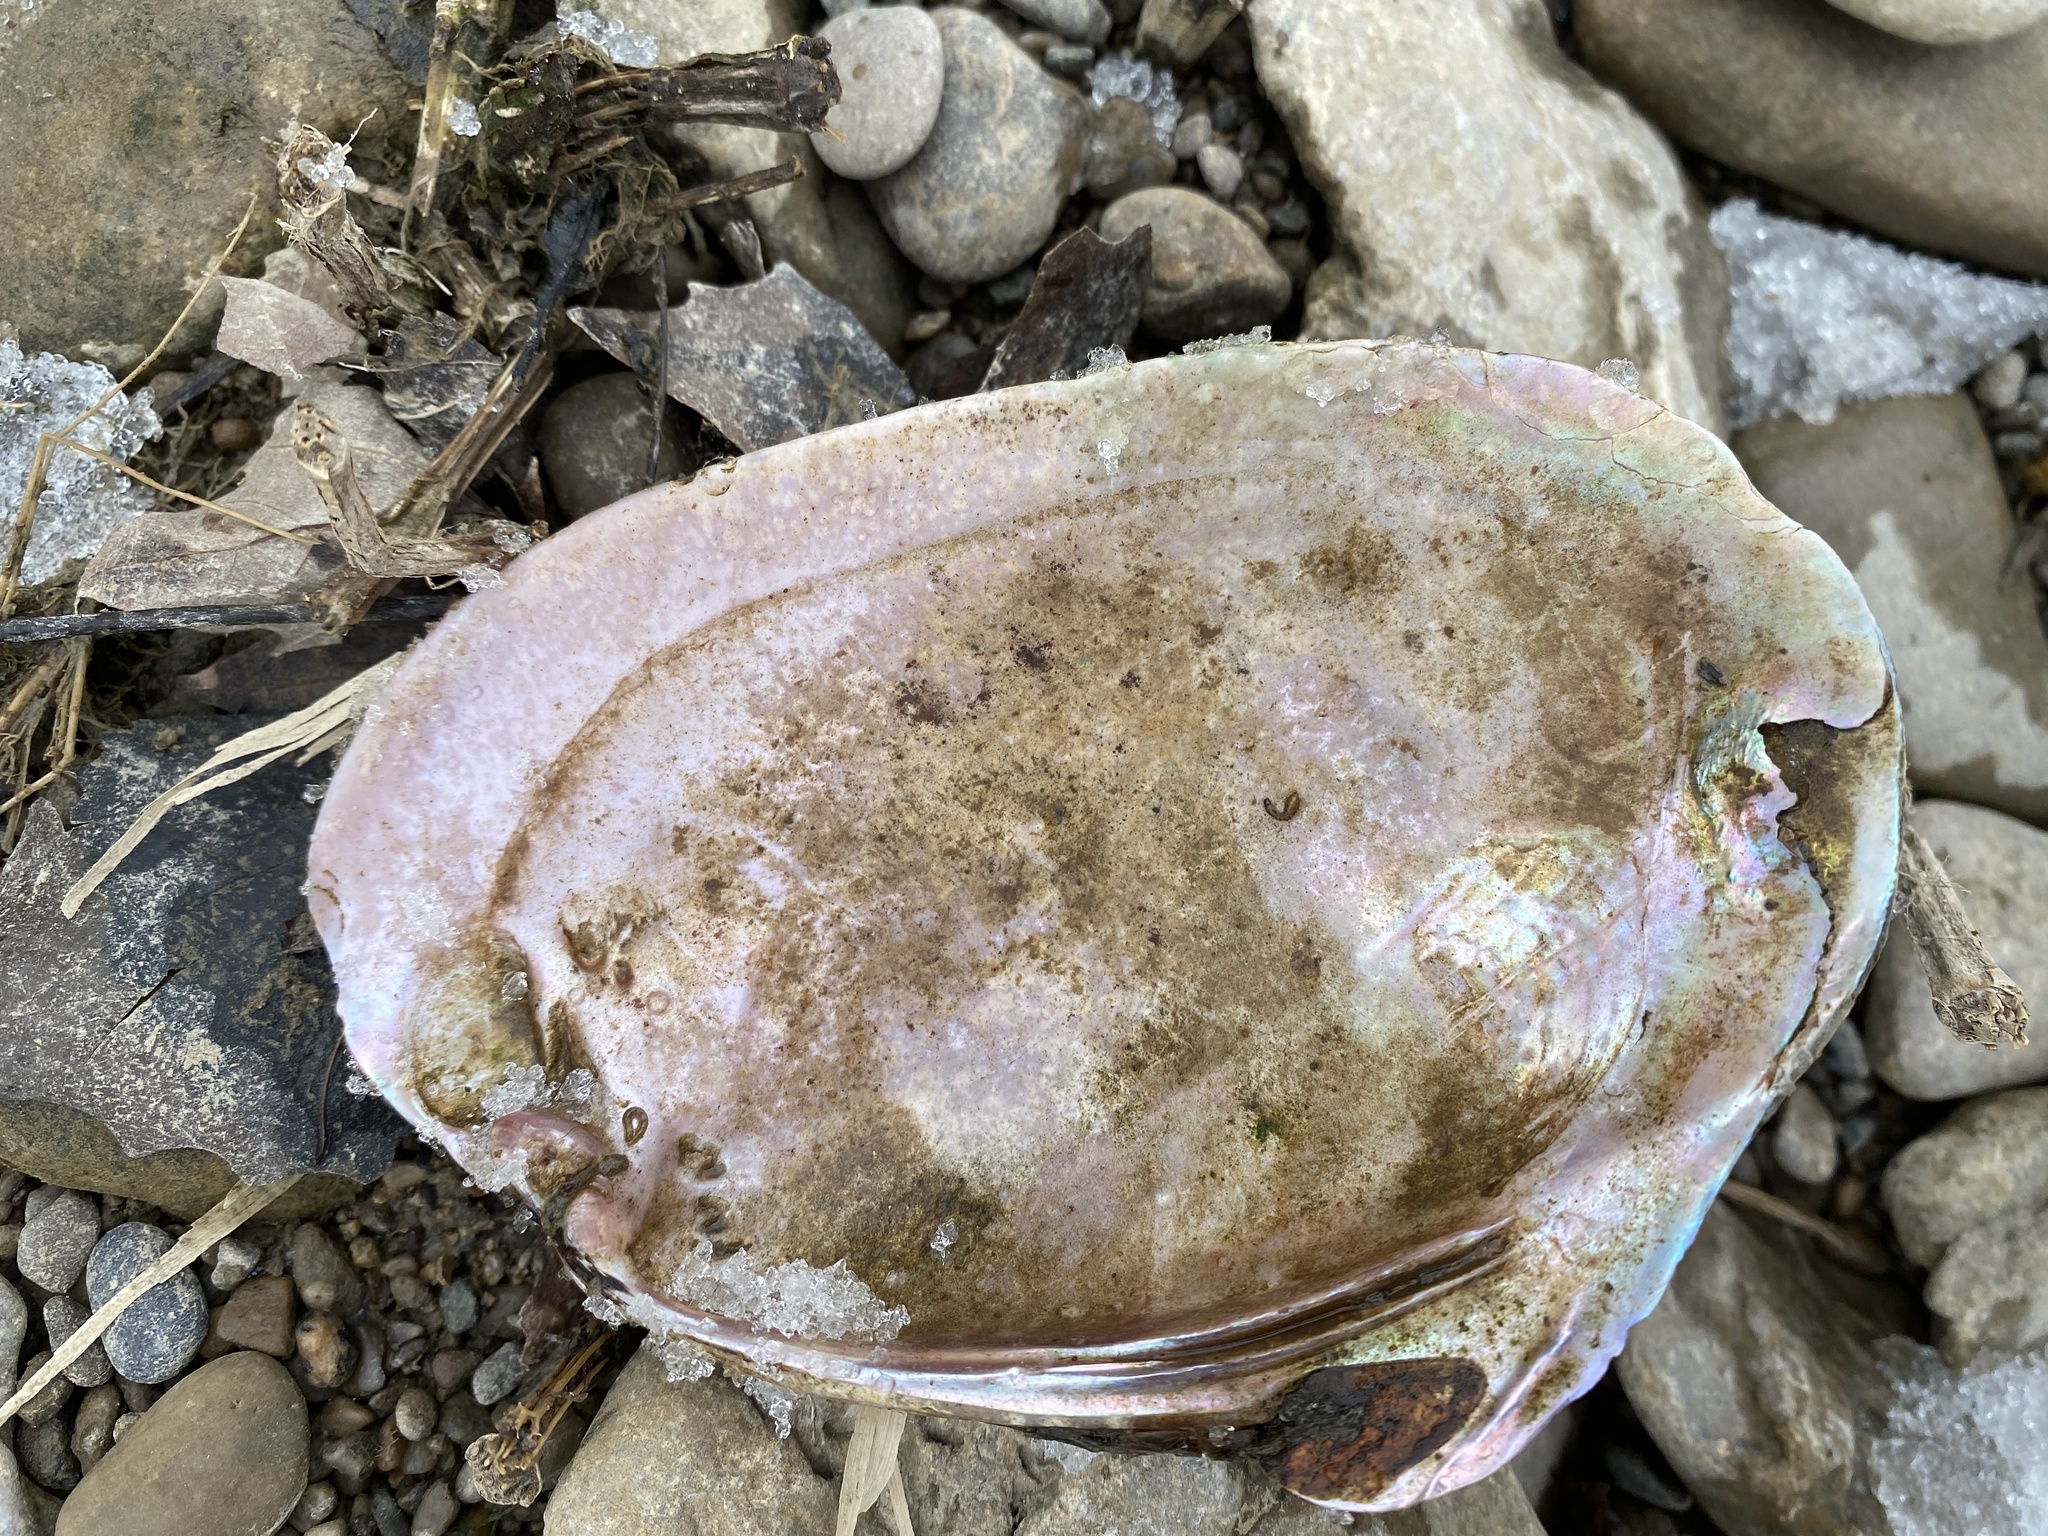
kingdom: Animalia
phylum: Mollusca
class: Bivalvia
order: Unionida
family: Unionidae
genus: Potamilus
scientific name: Potamilus alatus
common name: Pink heelsplitter
